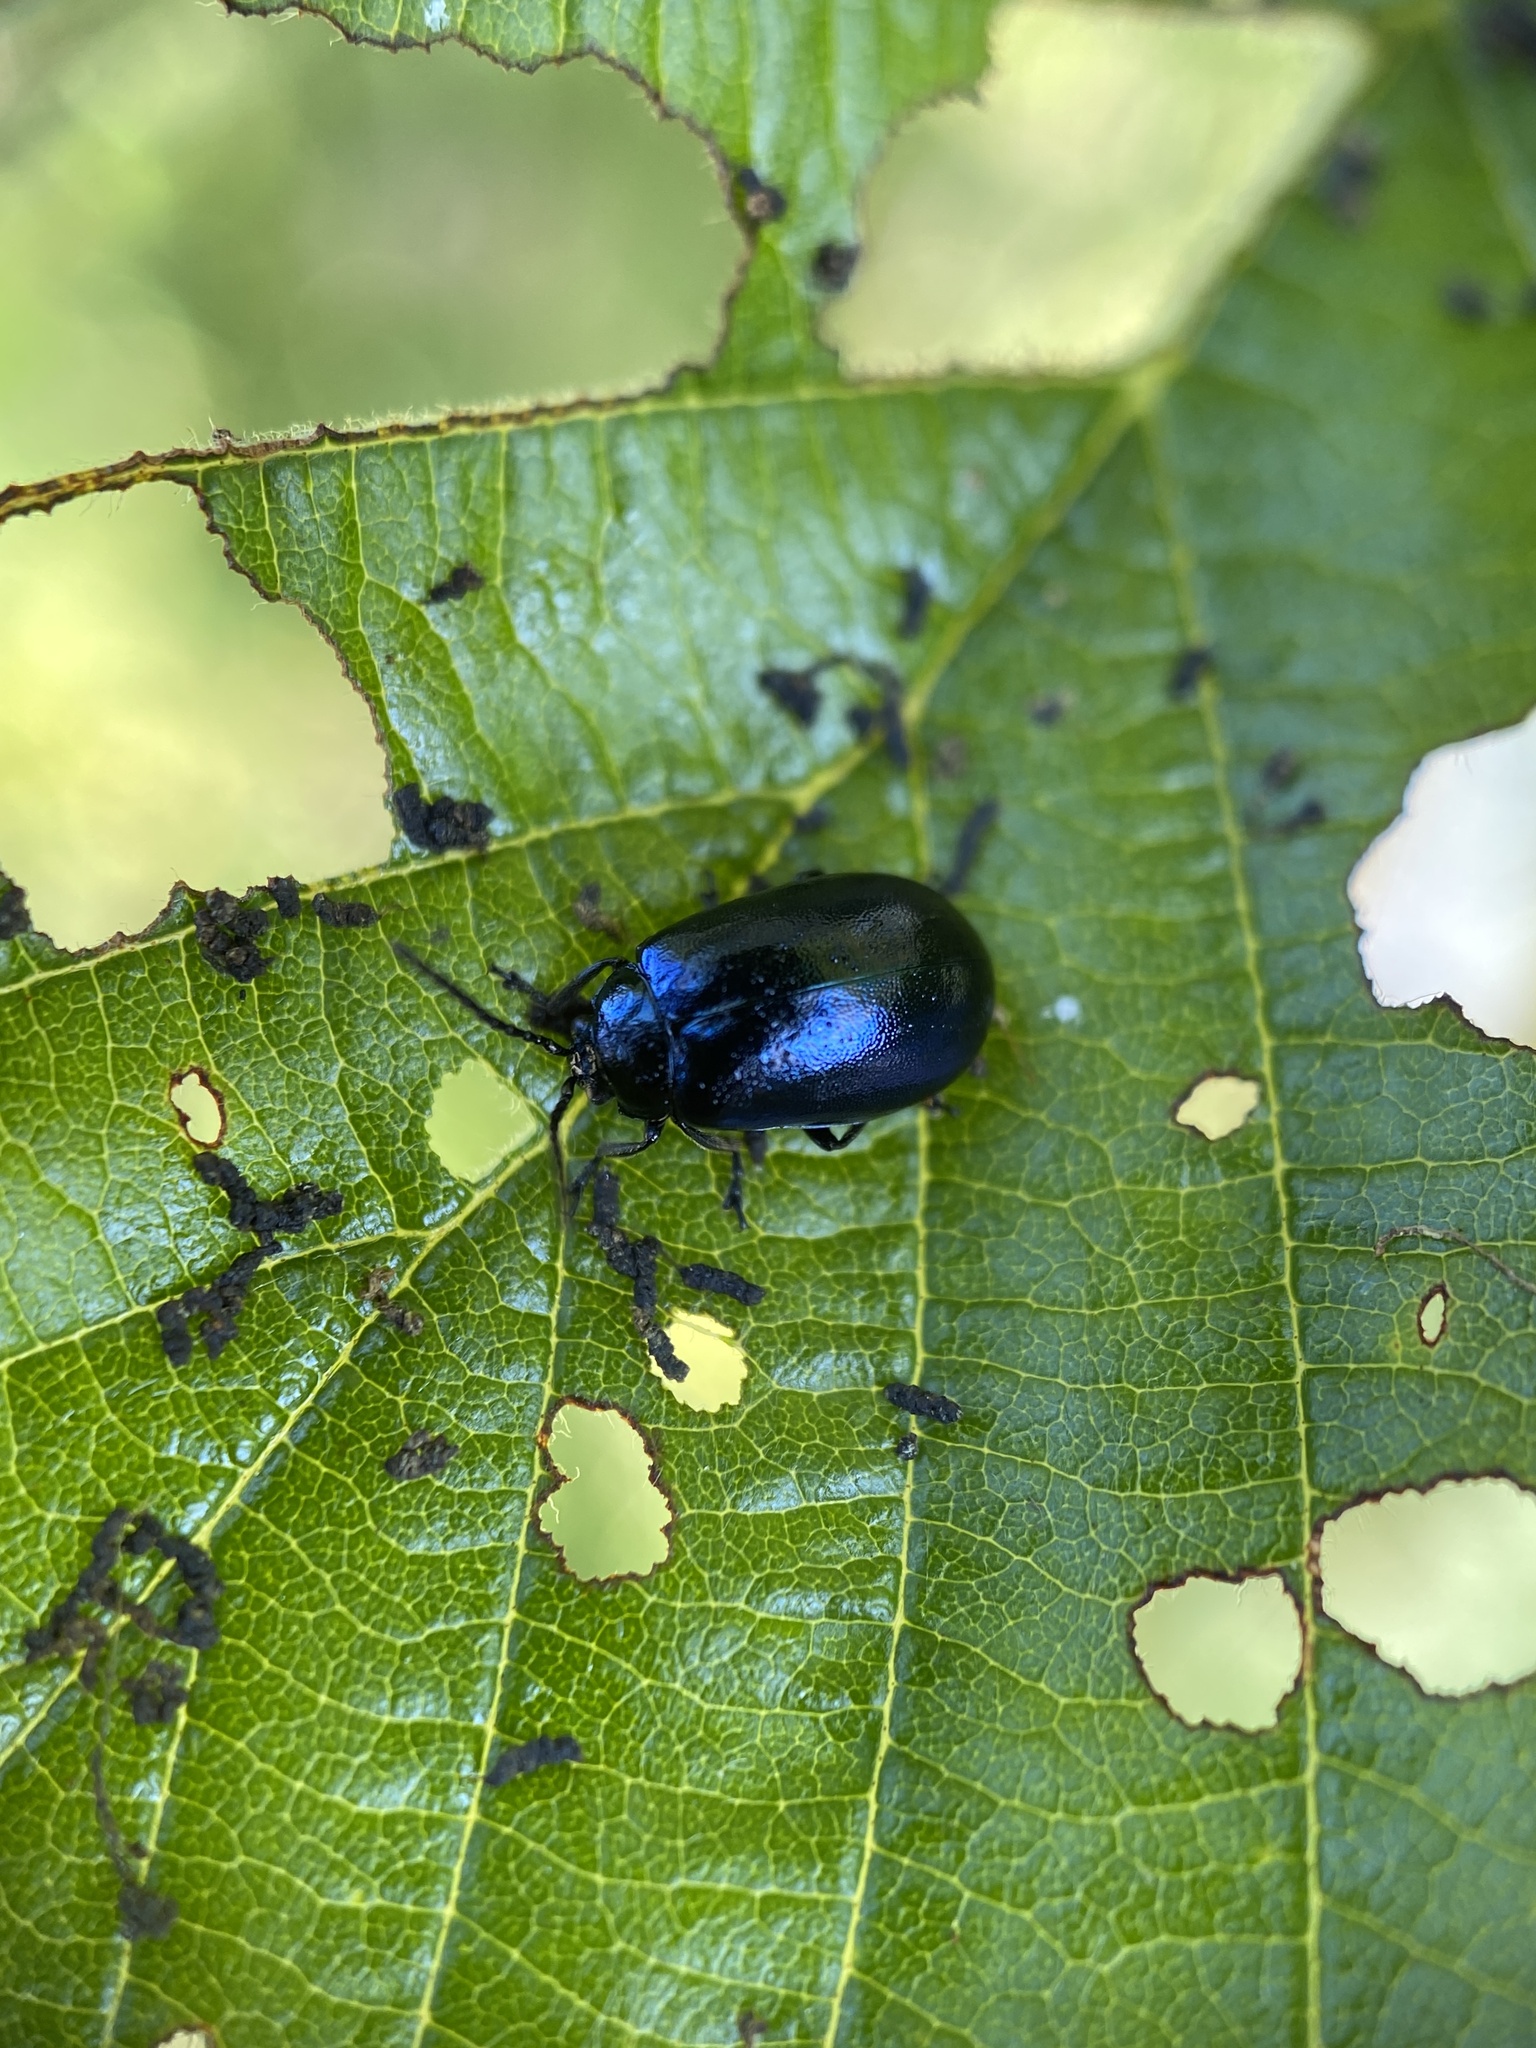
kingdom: Animalia
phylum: Arthropoda
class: Insecta
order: Coleoptera
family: Chrysomelidae
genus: Agelastica
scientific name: Agelastica alni
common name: Alder leaf beetle
